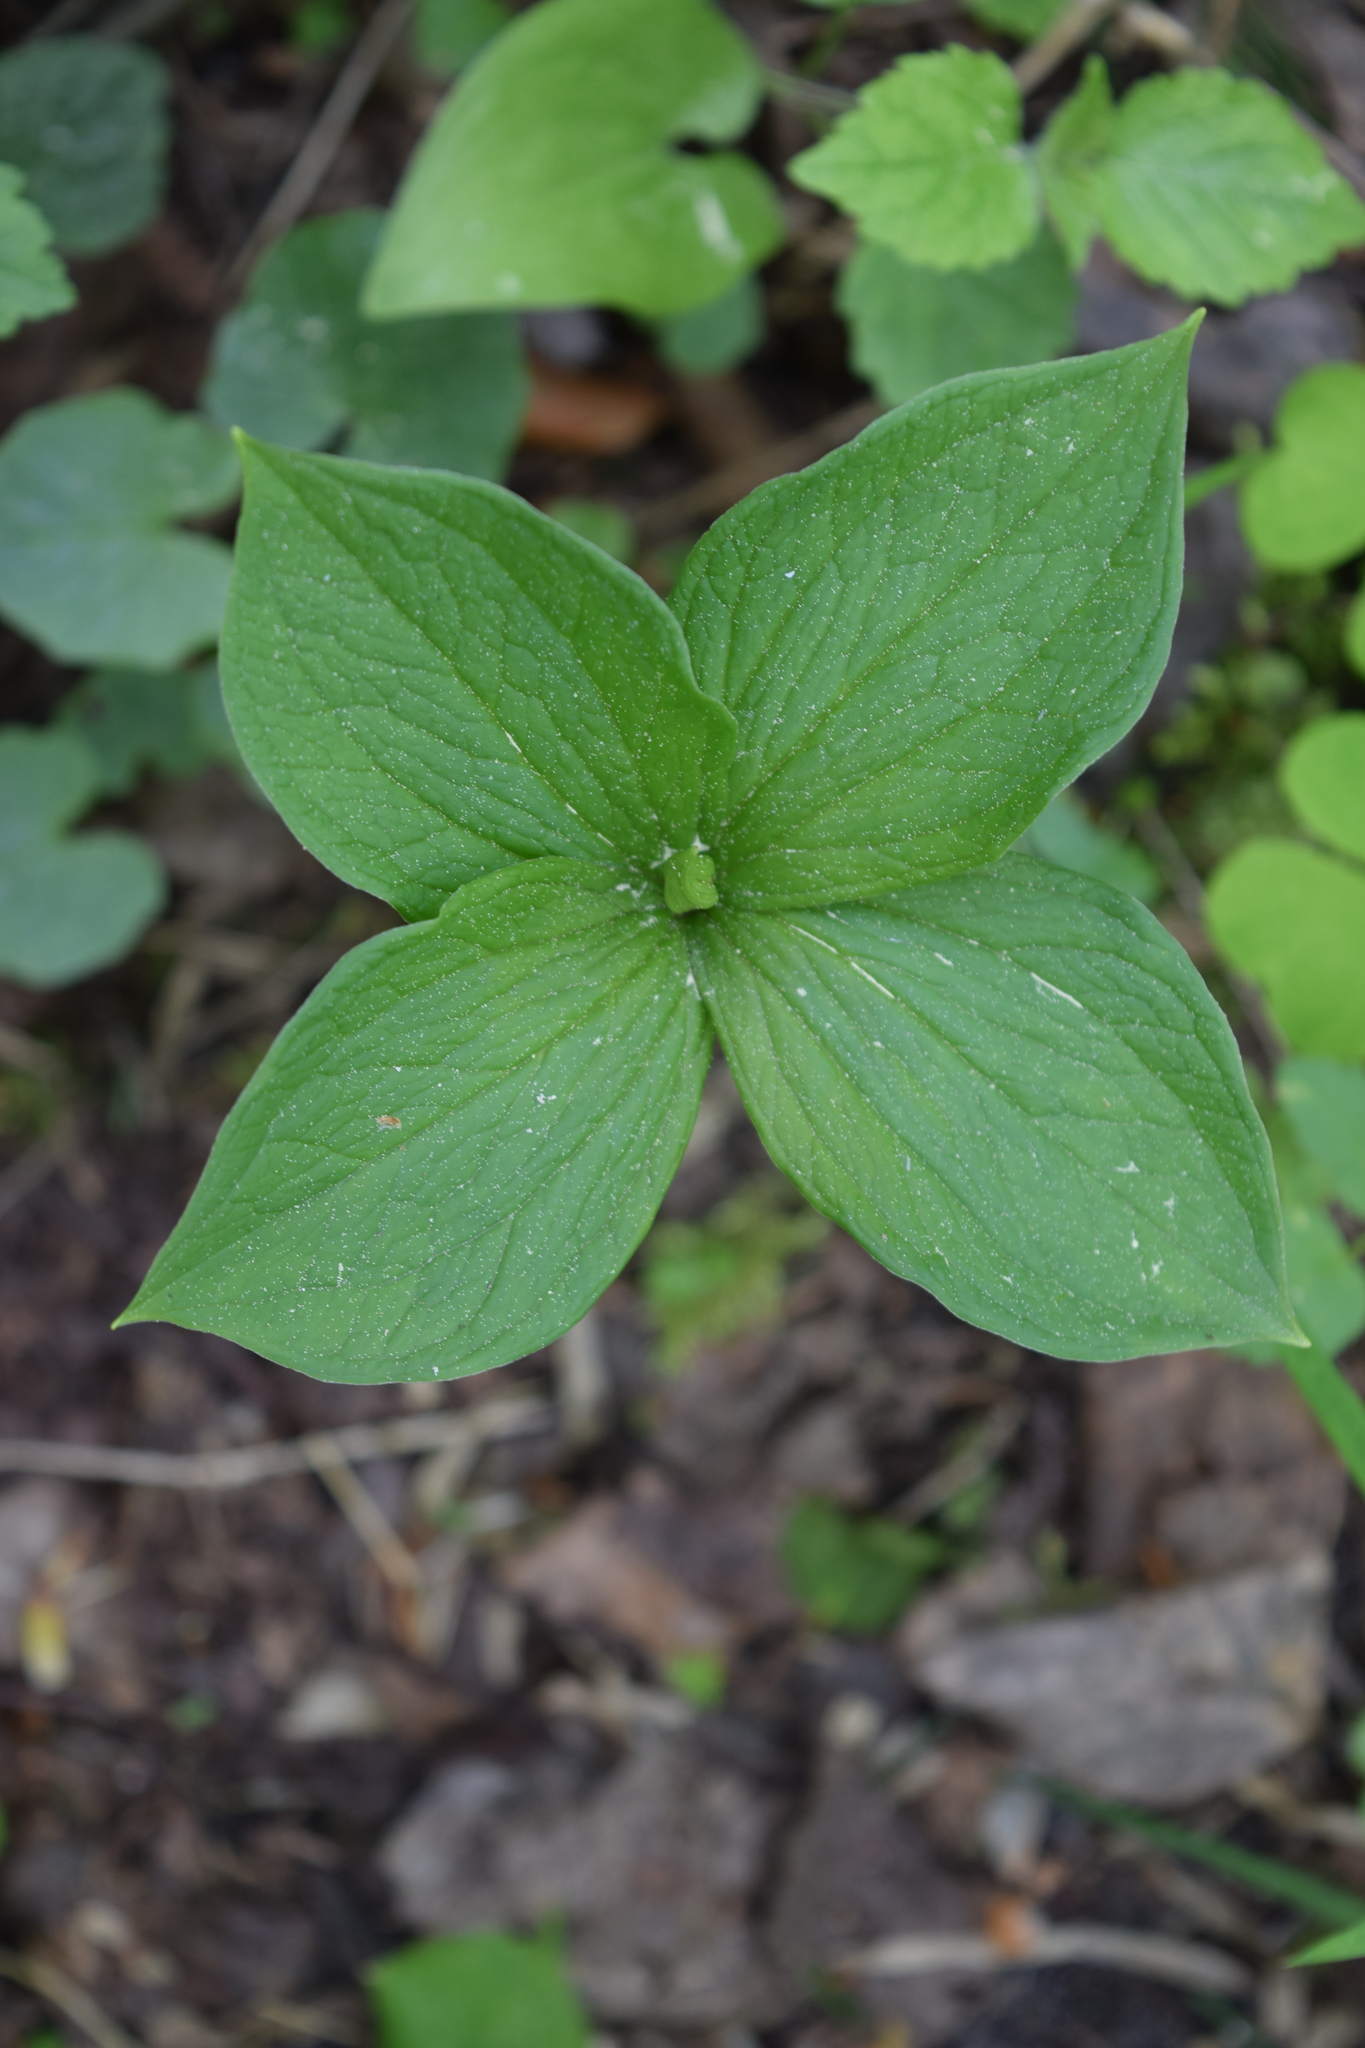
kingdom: Plantae
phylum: Tracheophyta
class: Liliopsida
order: Liliales
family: Melanthiaceae
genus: Paris
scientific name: Paris quadrifolia
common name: Herb-paris
